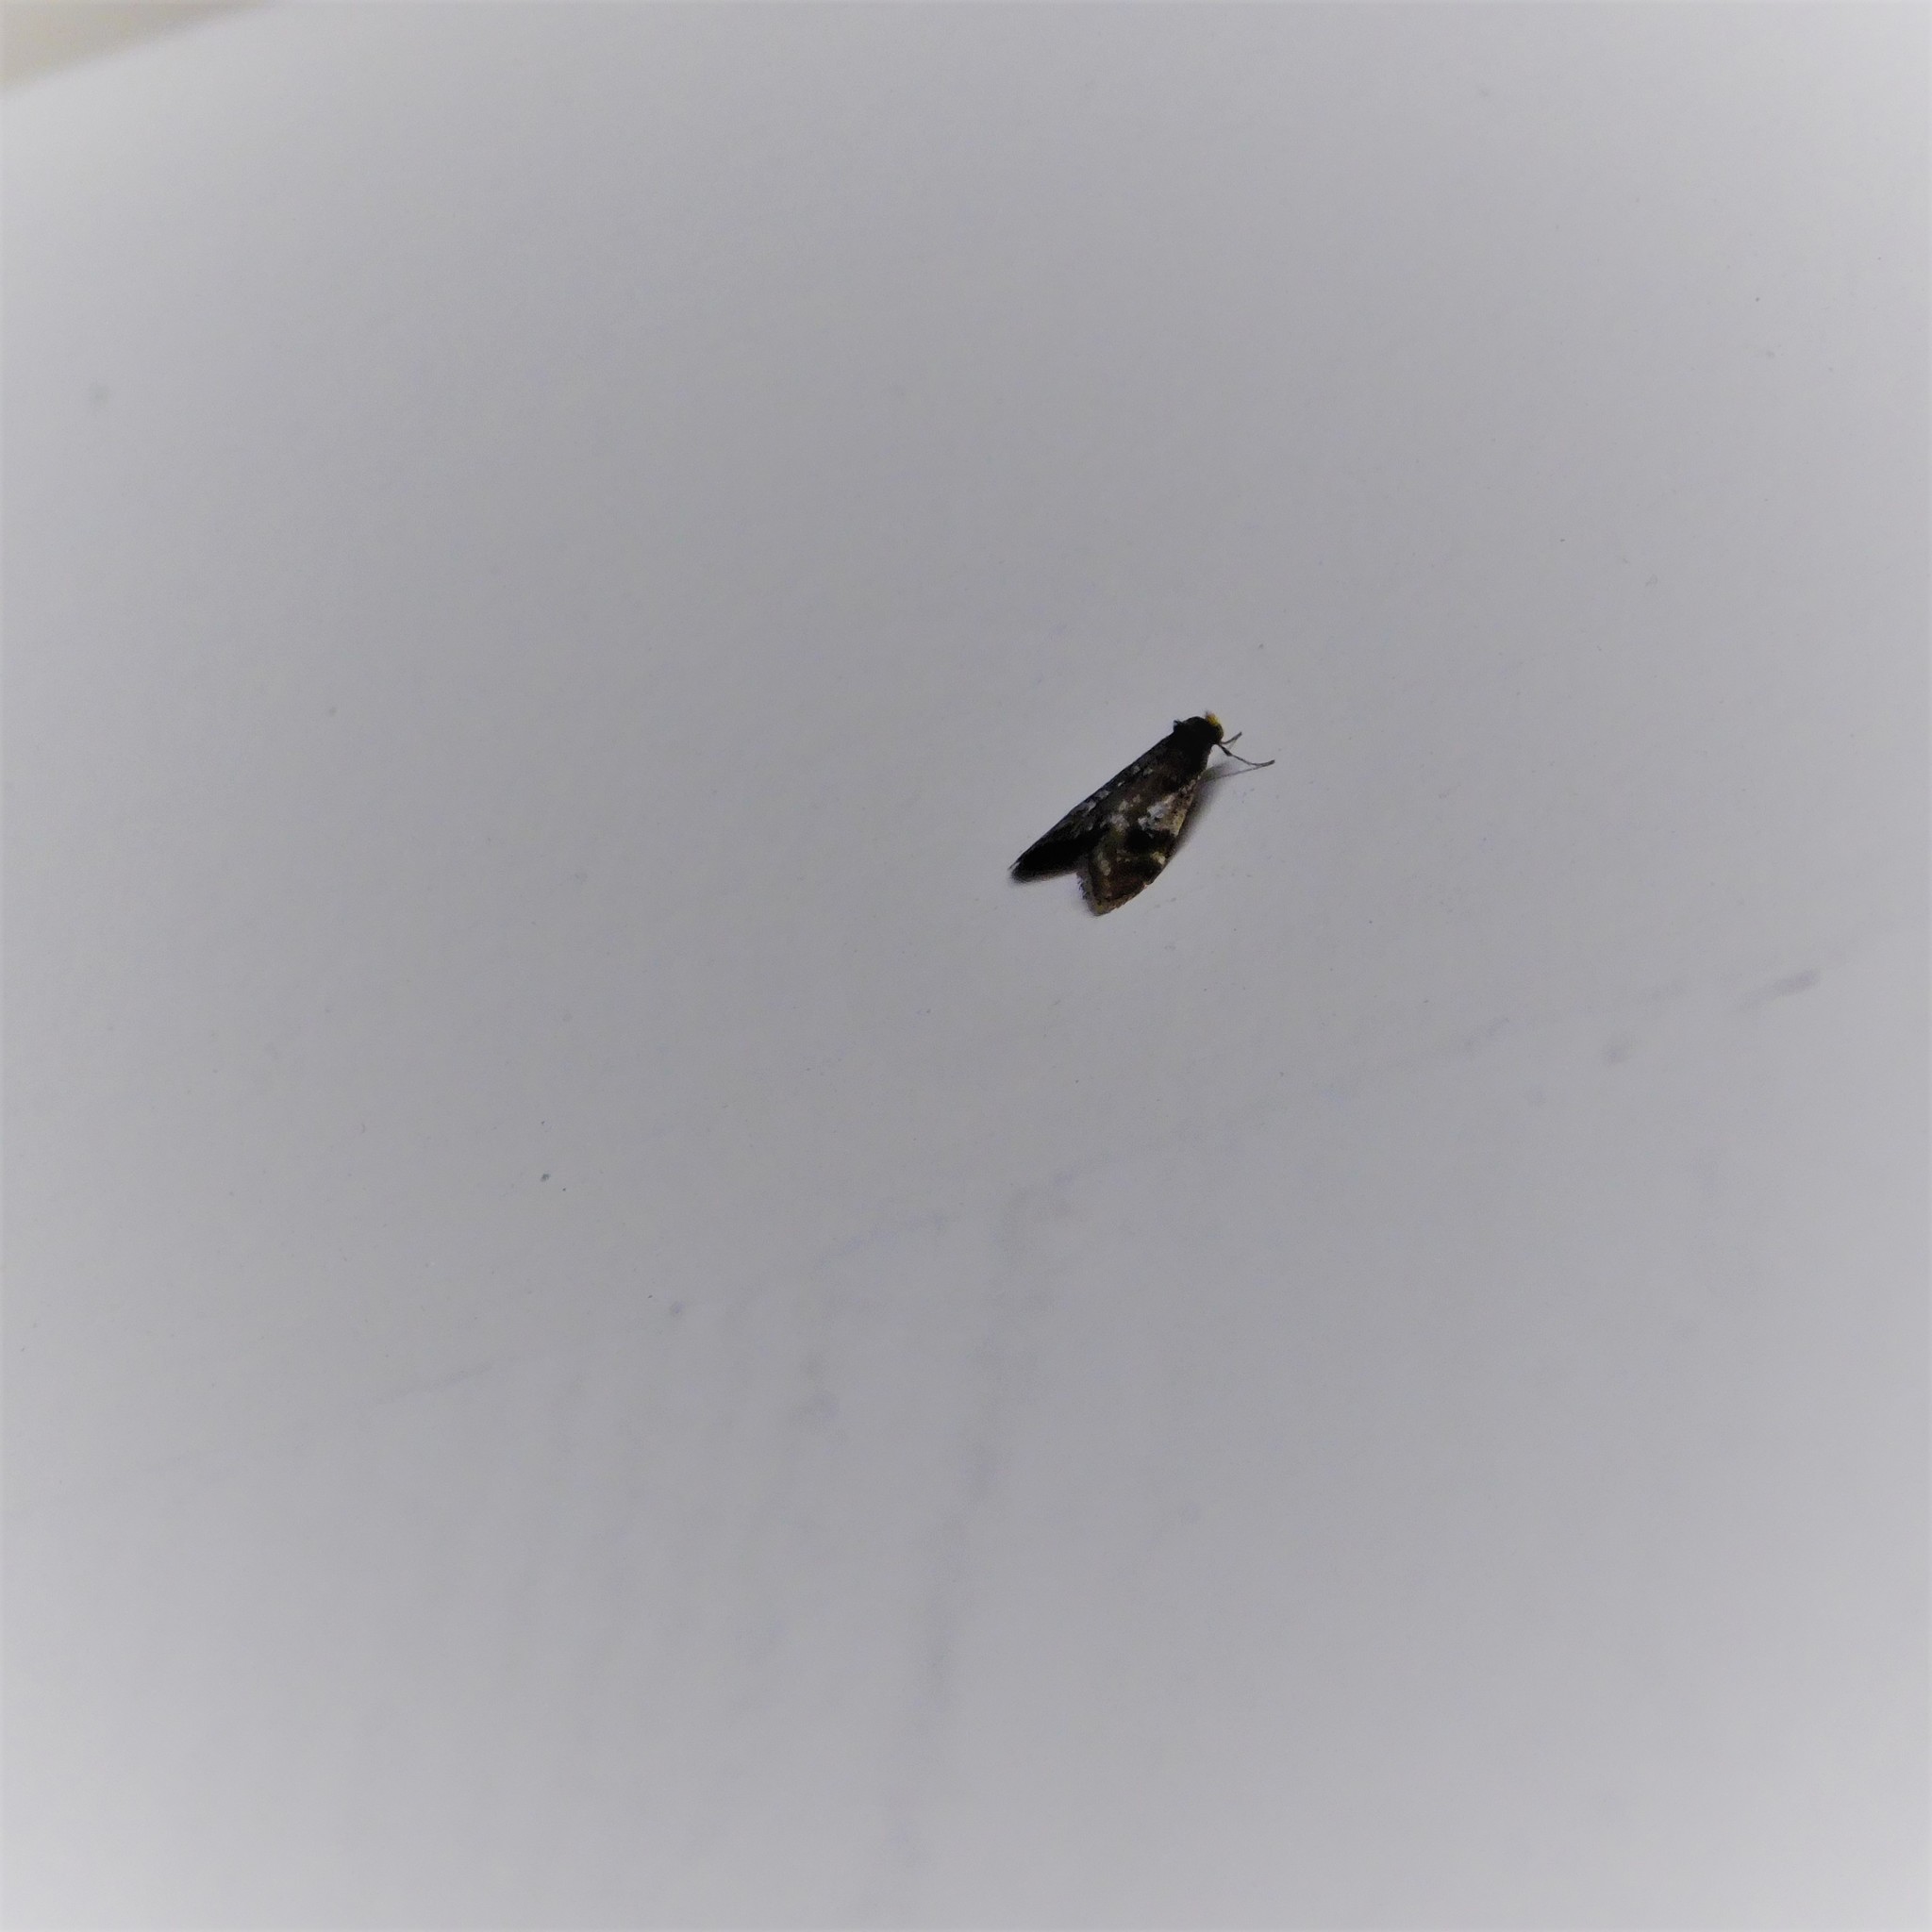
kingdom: Animalia
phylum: Arthropoda
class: Insecta
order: Lepidoptera
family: Psychidae
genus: Lepidoscia
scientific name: Lepidoscia lainodes
